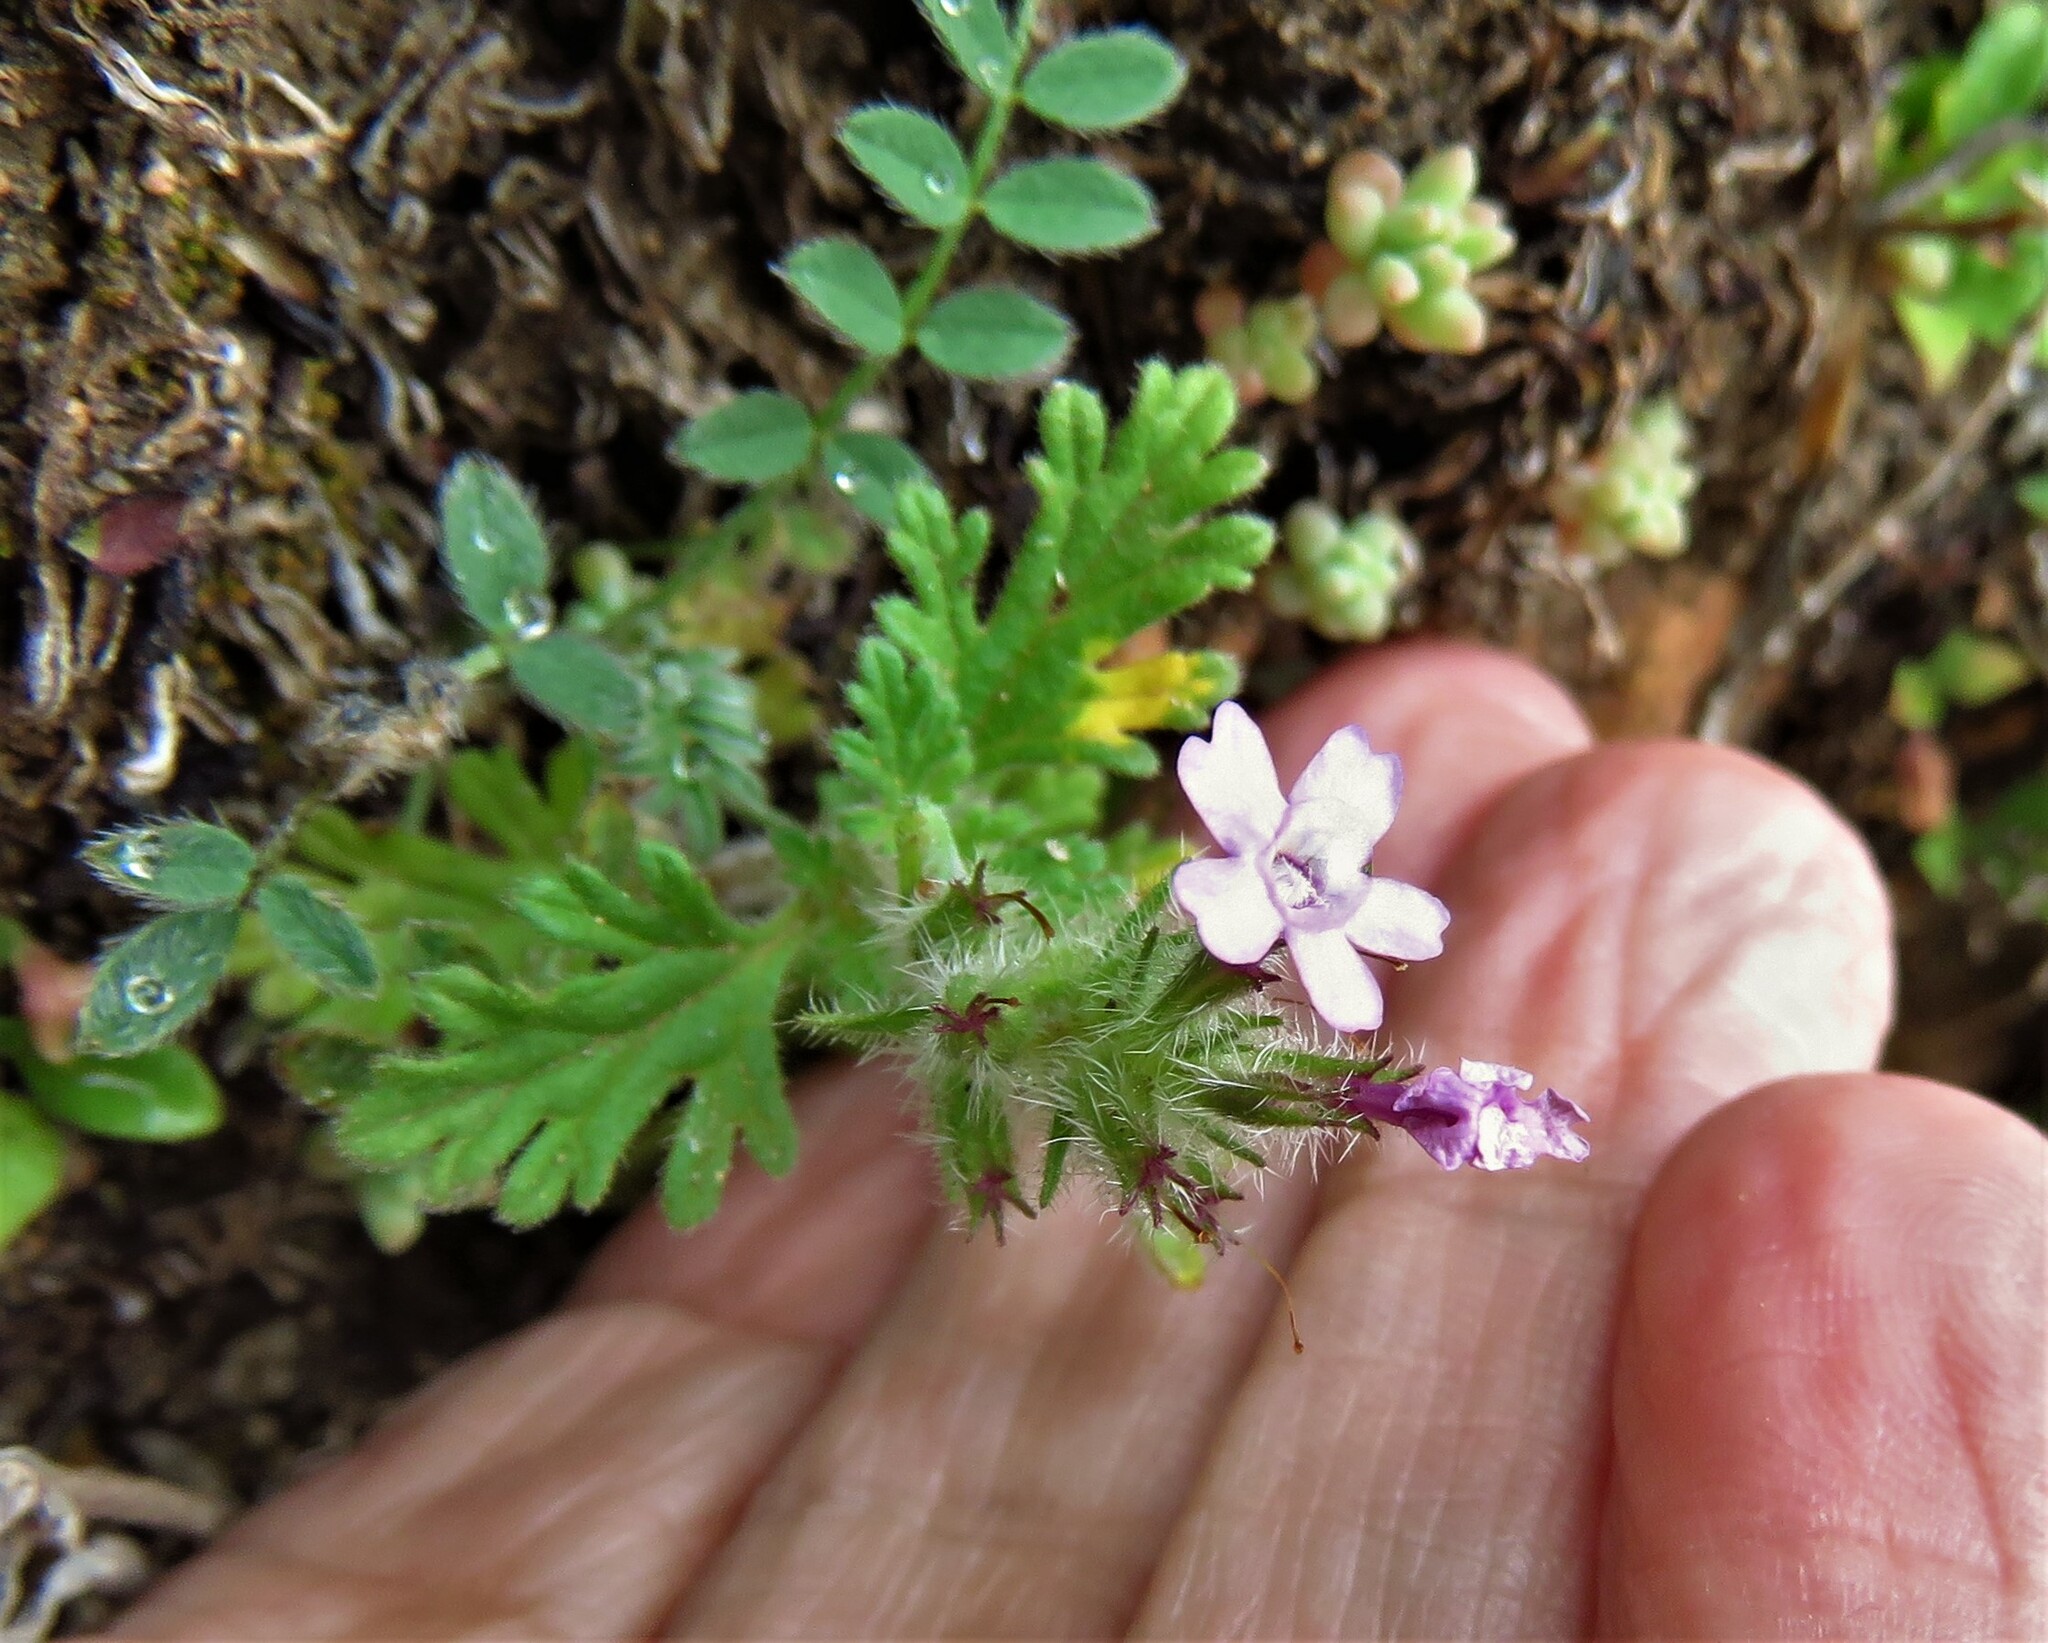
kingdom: Plantae
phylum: Tracheophyta
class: Magnoliopsida
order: Lamiales
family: Verbenaceae
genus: Verbena
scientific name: Verbena pumila
